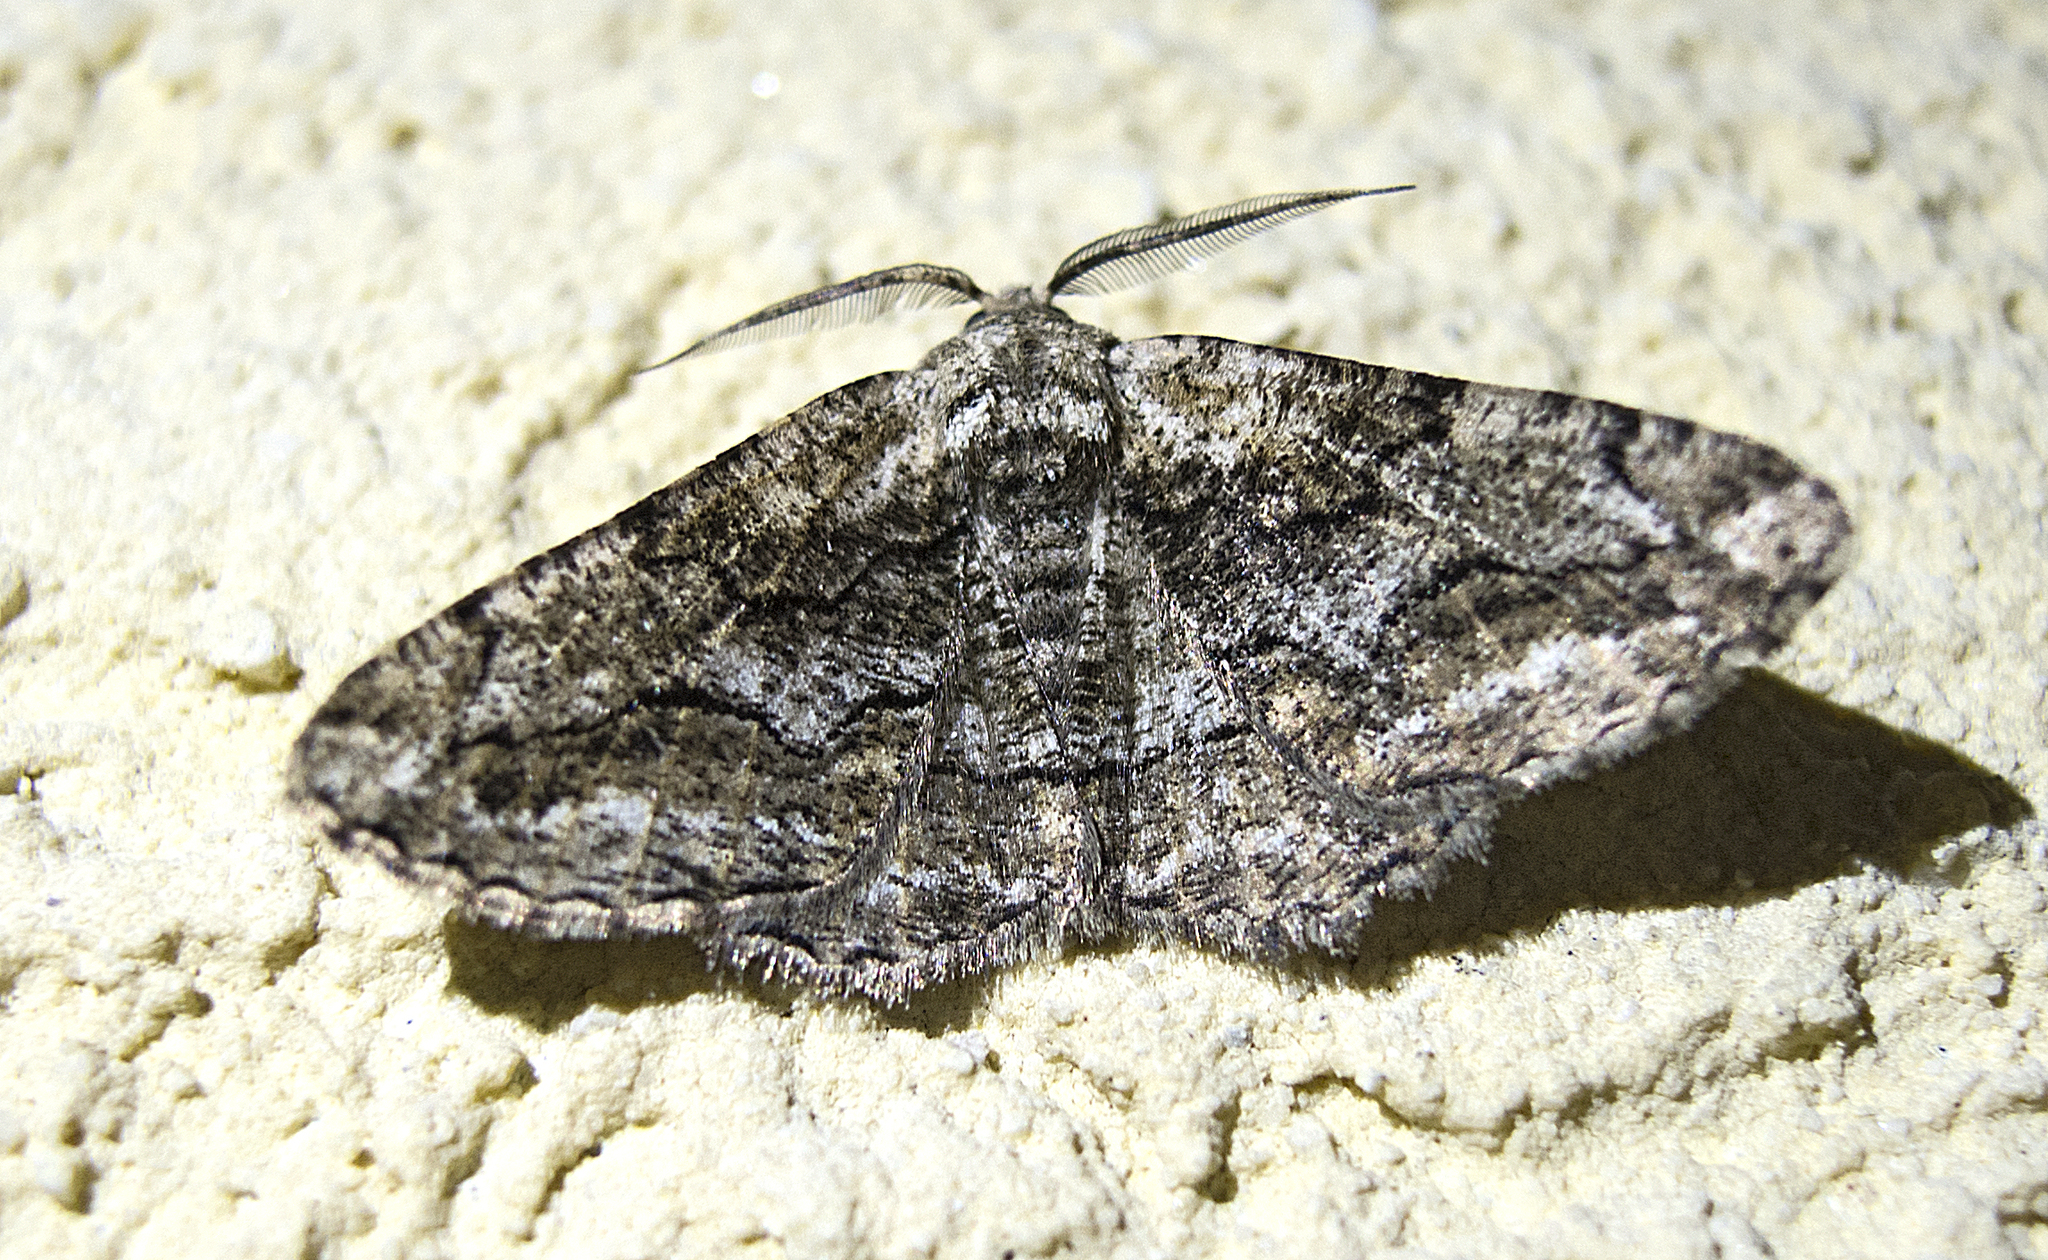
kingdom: Animalia
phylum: Arthropoda
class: Insecta
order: Lepidoptera
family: Geometridae
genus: Synopsia
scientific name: Synopsia sociaria
